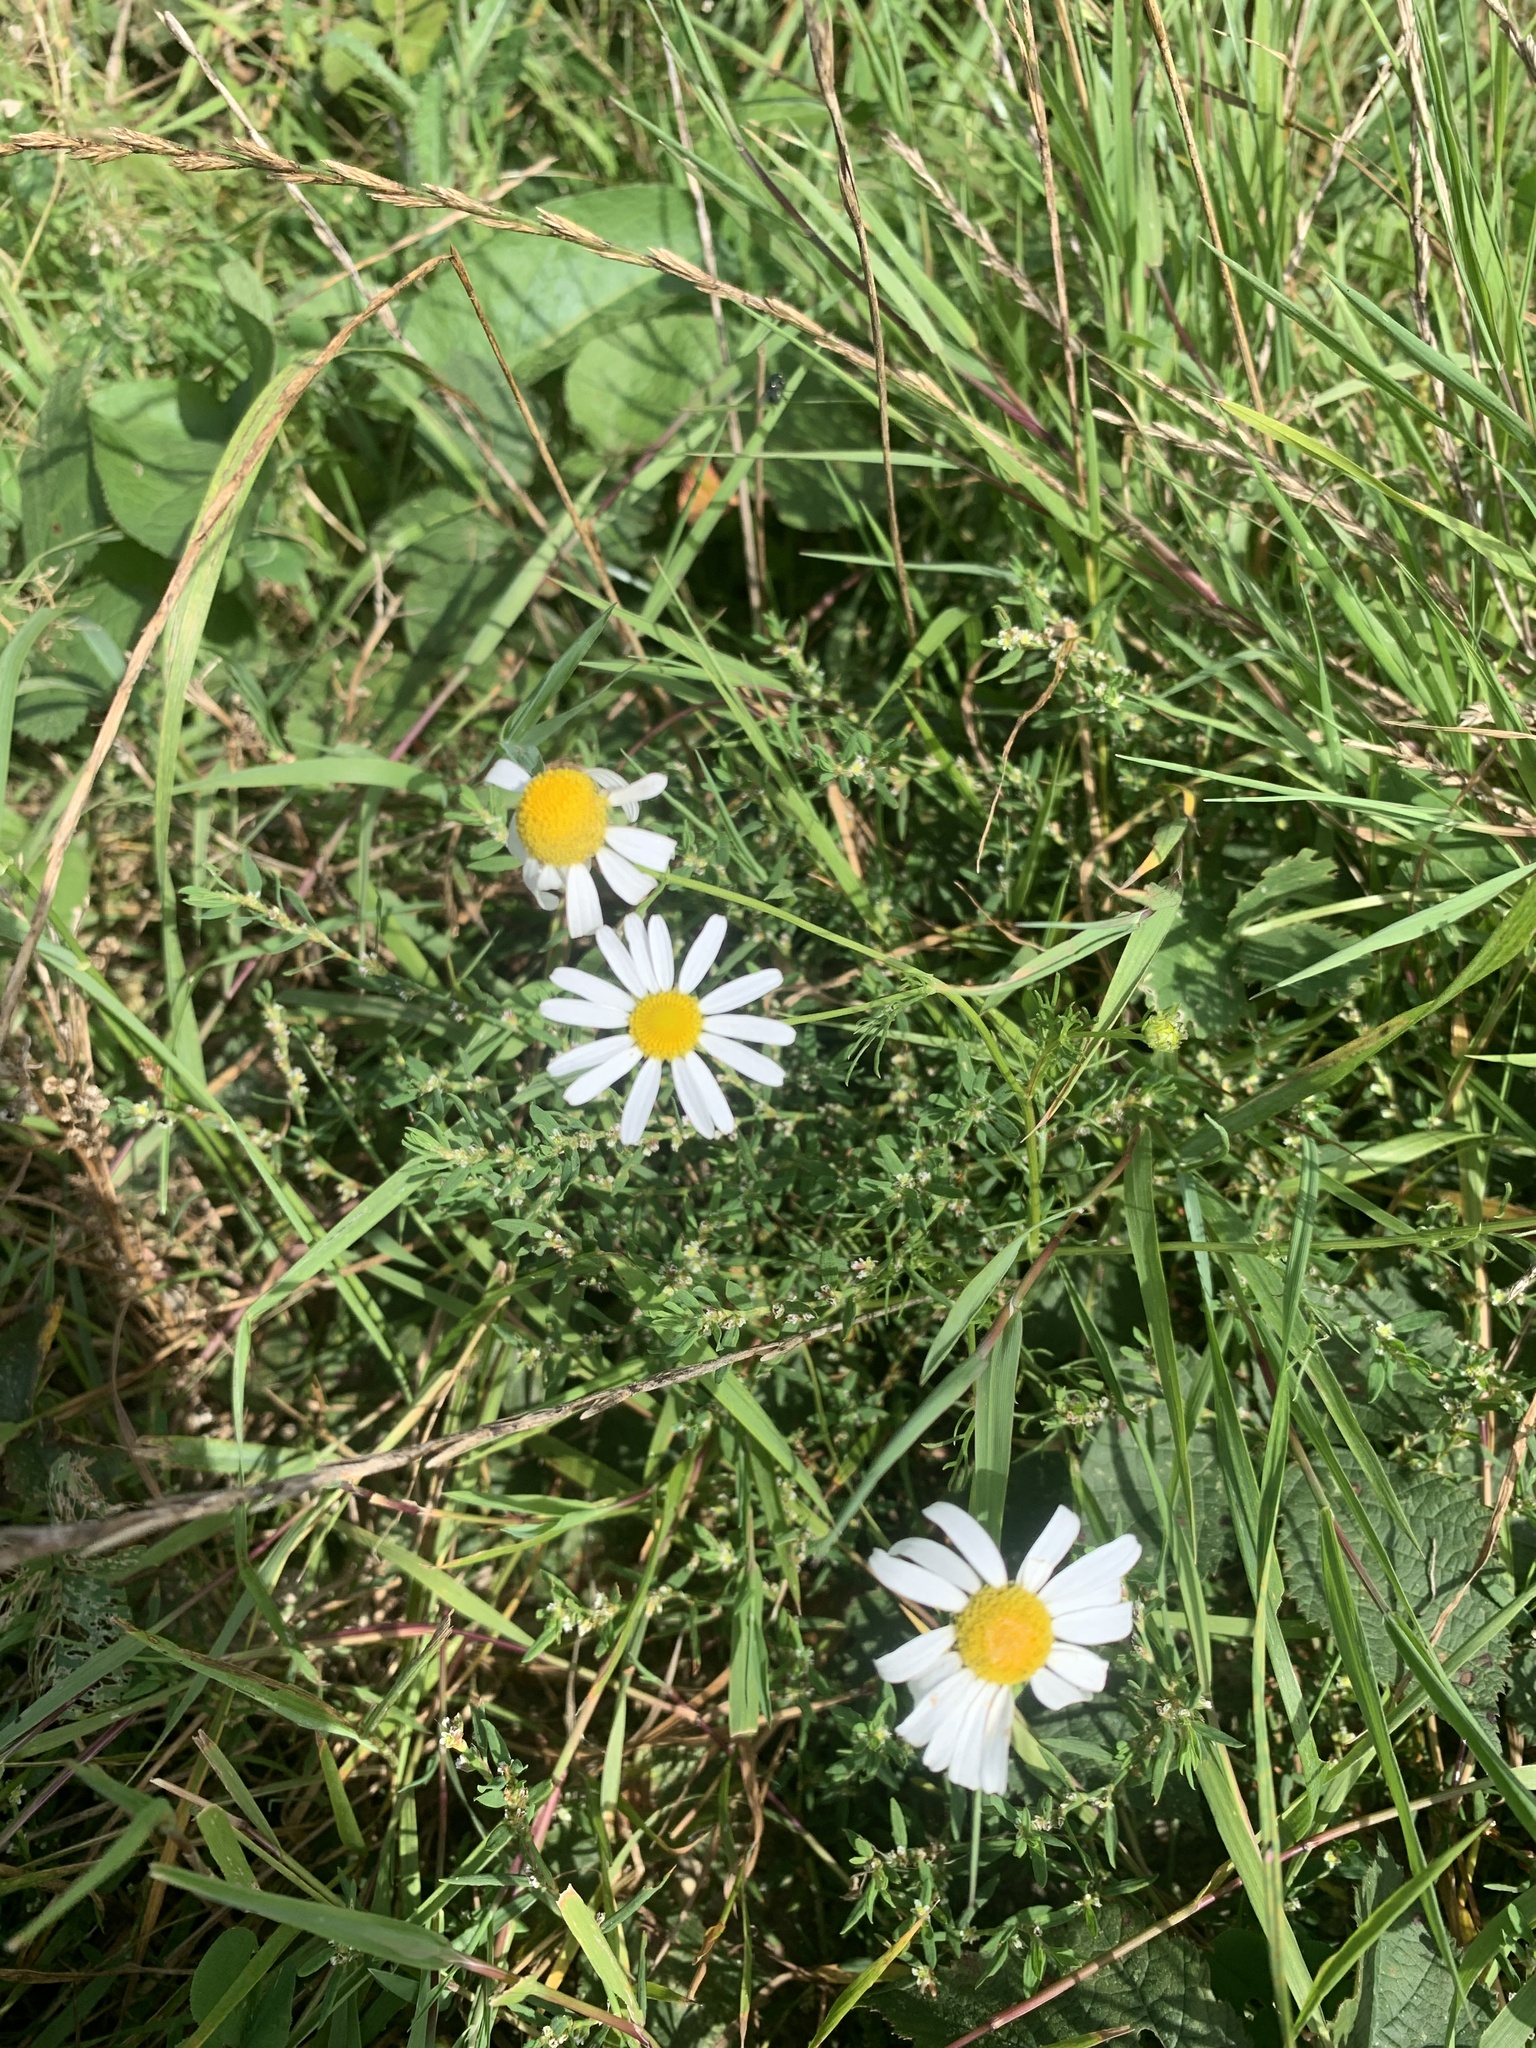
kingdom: Plantae
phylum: Tracheophyta
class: Magnoliopsida
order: Asterales
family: Asteraceae
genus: Tripleurospermum
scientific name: Tripleurospermum inodorum
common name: Scentless mayweed
